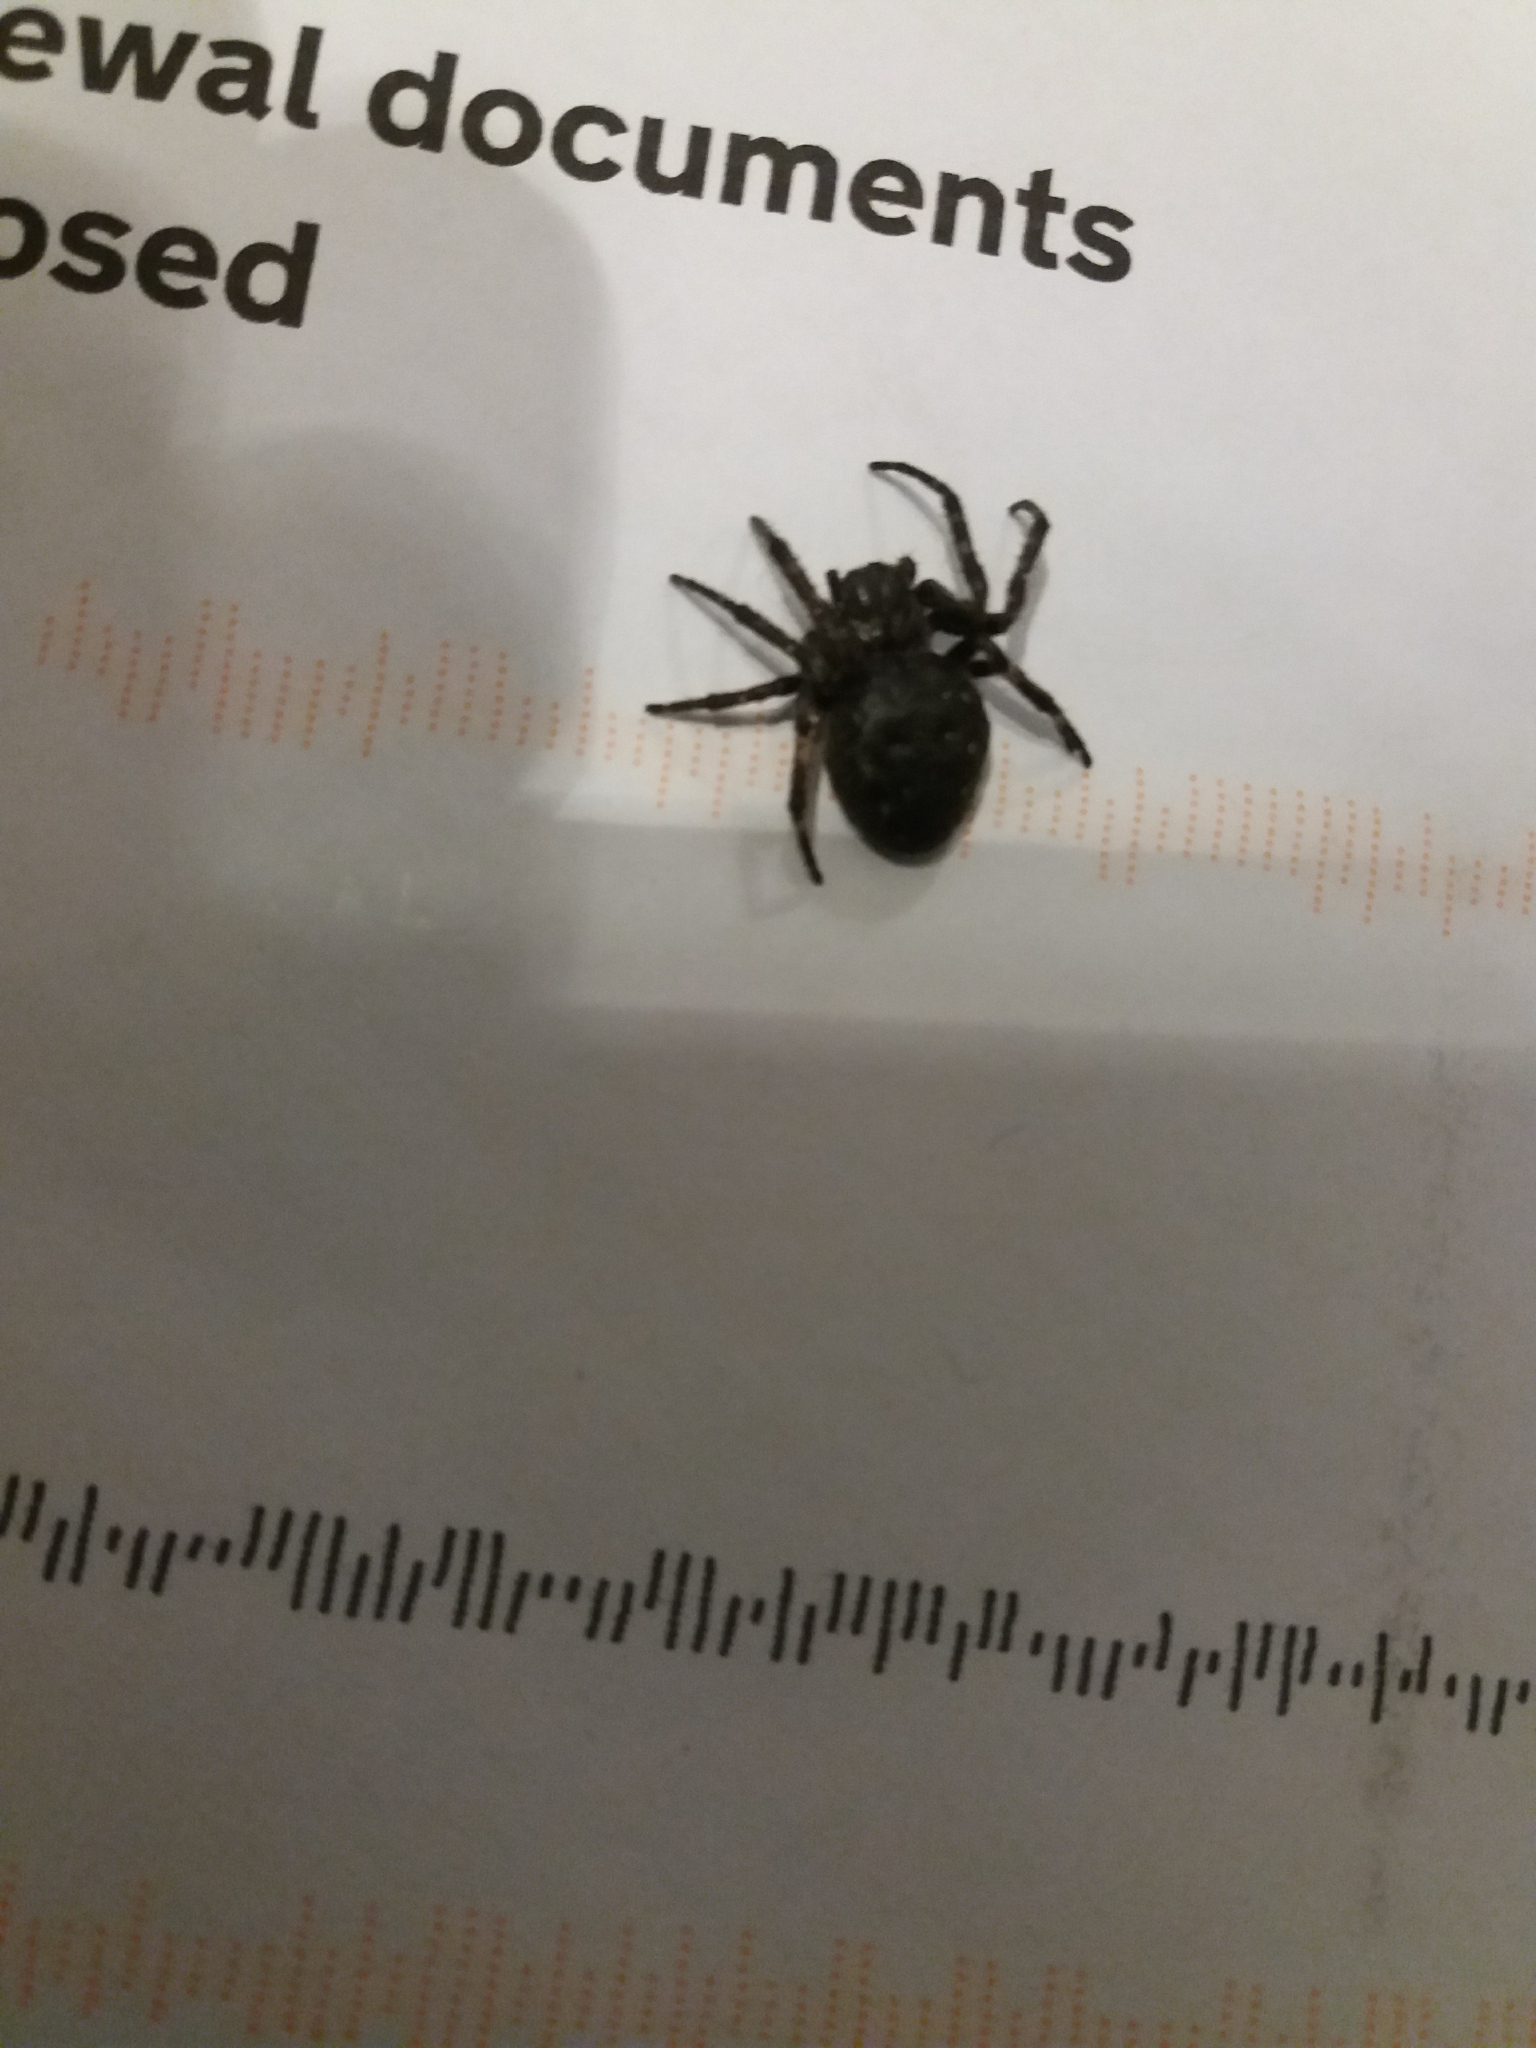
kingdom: Animalia
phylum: Arthropoda
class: Arachnida
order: Araneae
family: Araneidae
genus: Nuctenea
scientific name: Nuctenea umbratica
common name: Toad spider
